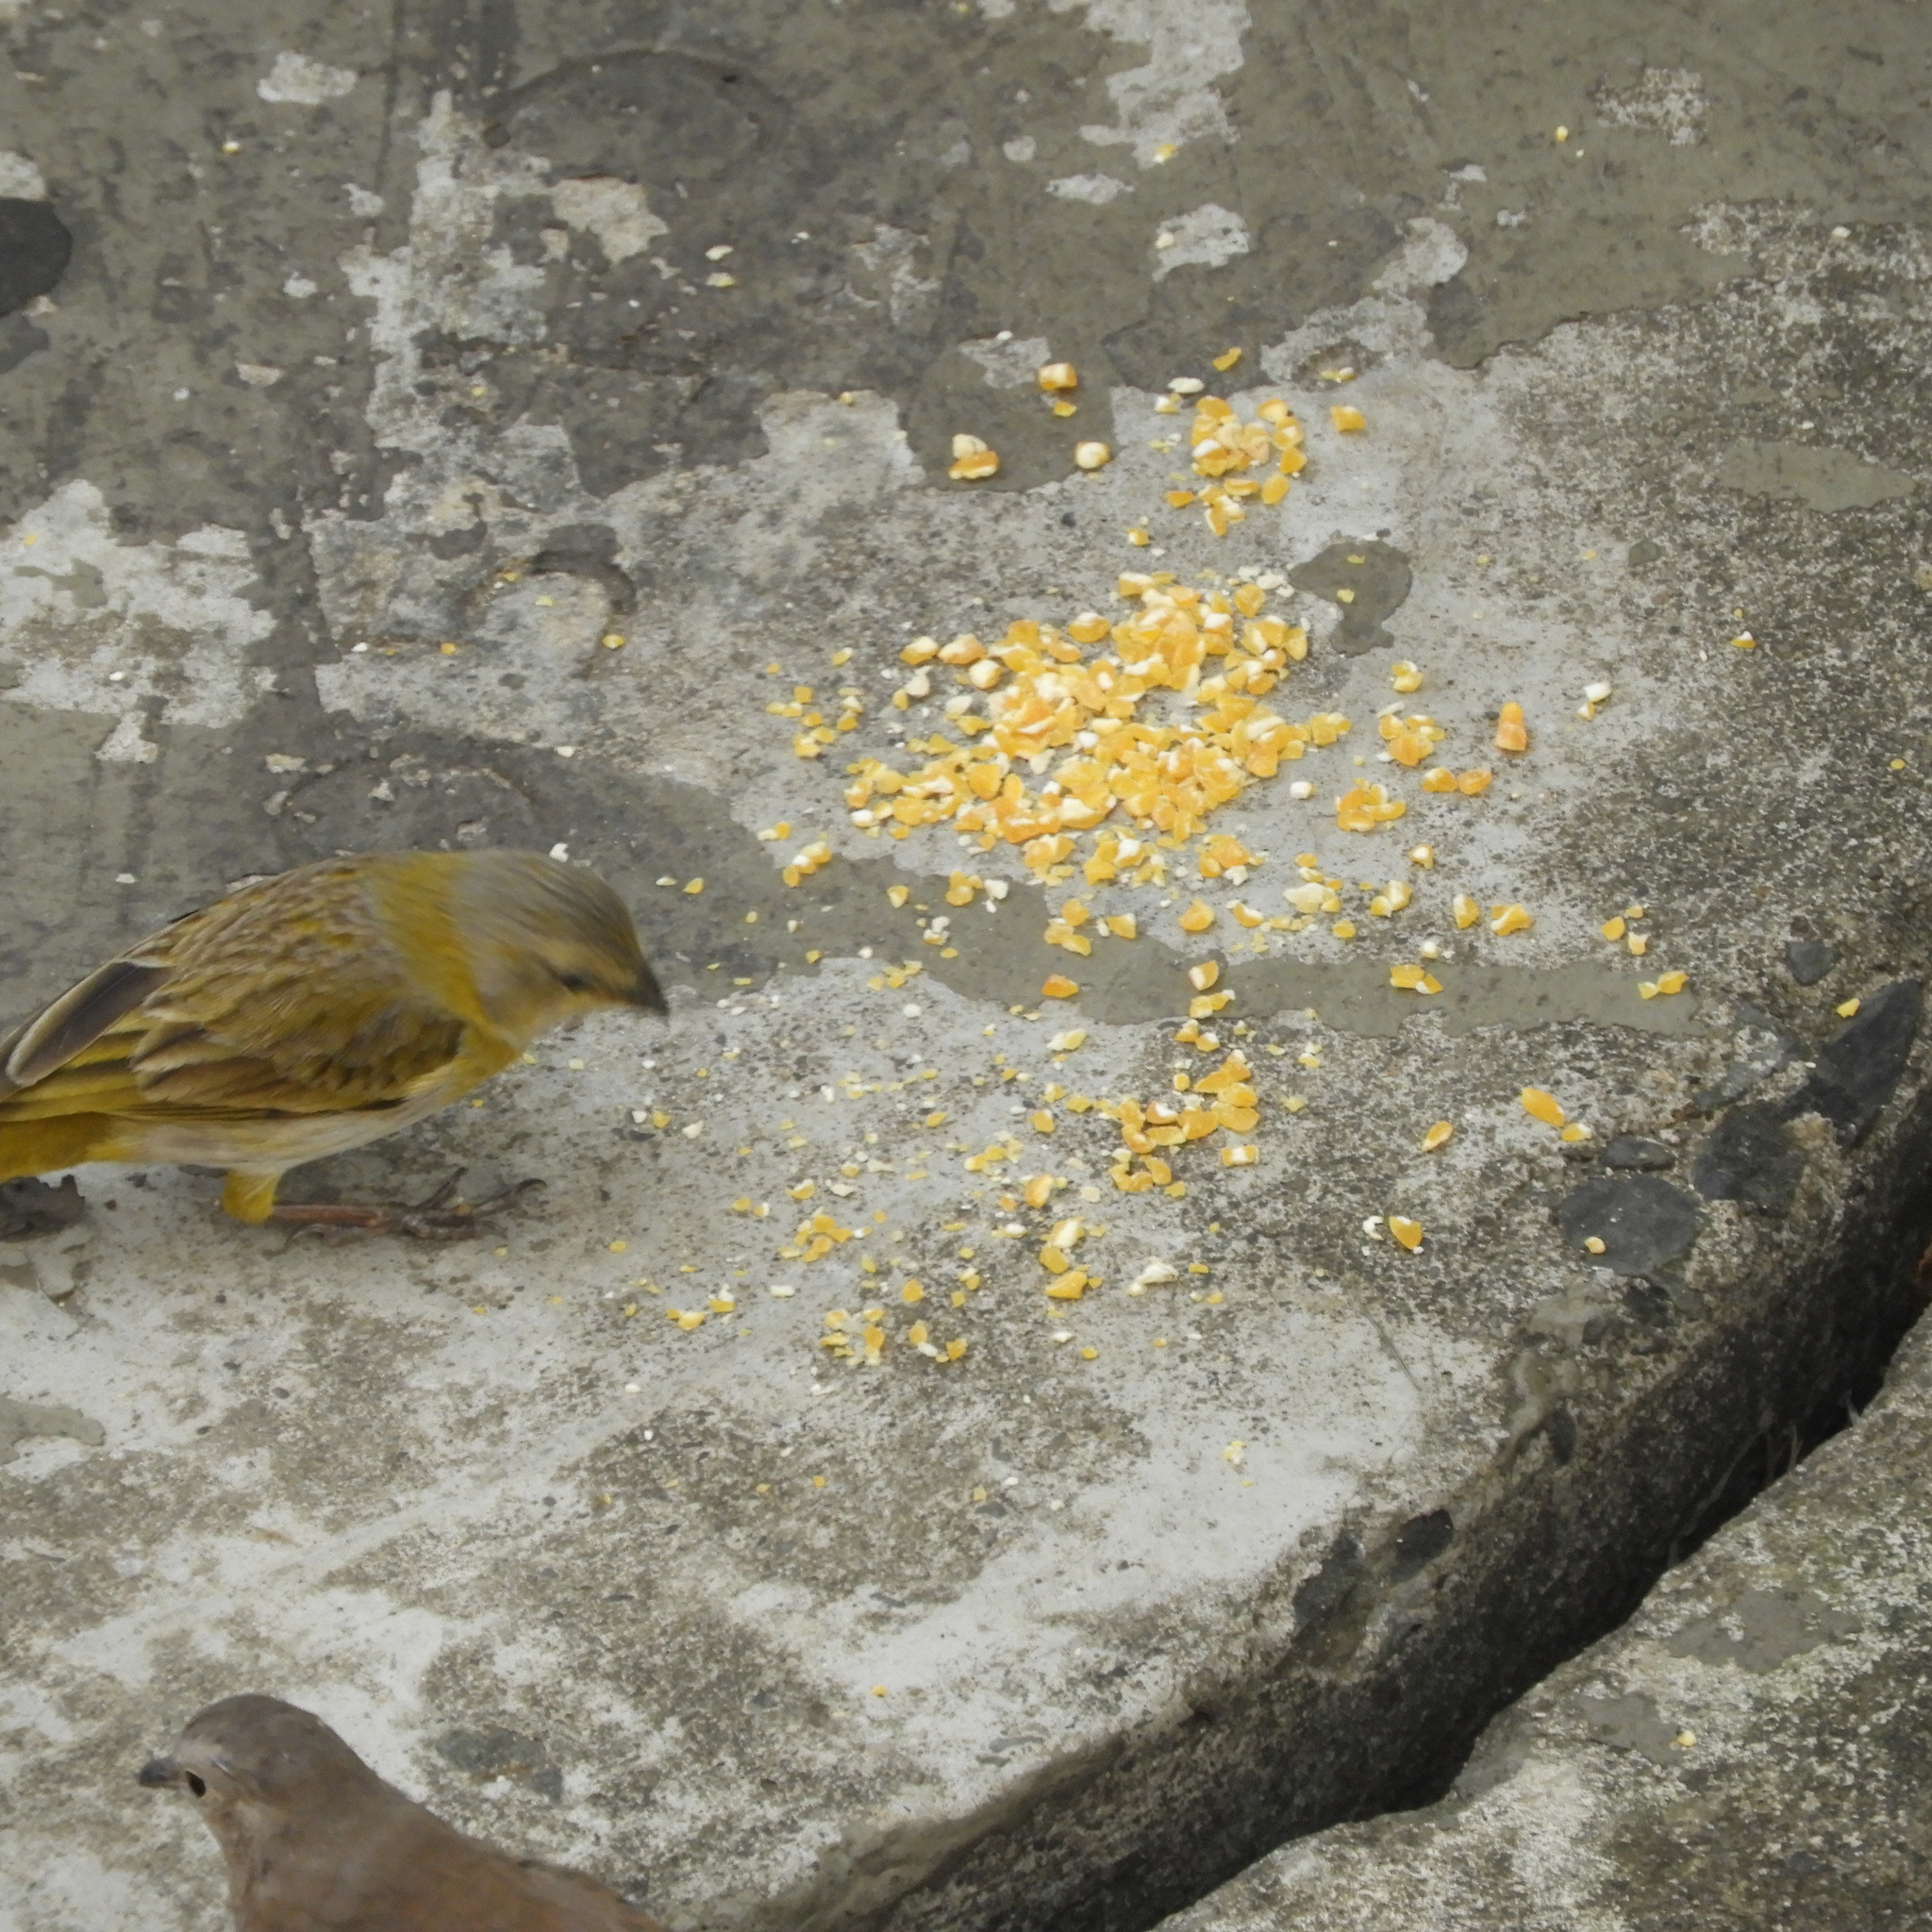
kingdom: Animalia
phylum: Chordata
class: Aves
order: Passeriformes
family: Thraupidae
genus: Sicalis
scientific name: Sicalis flaveola
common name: Saffron finch
